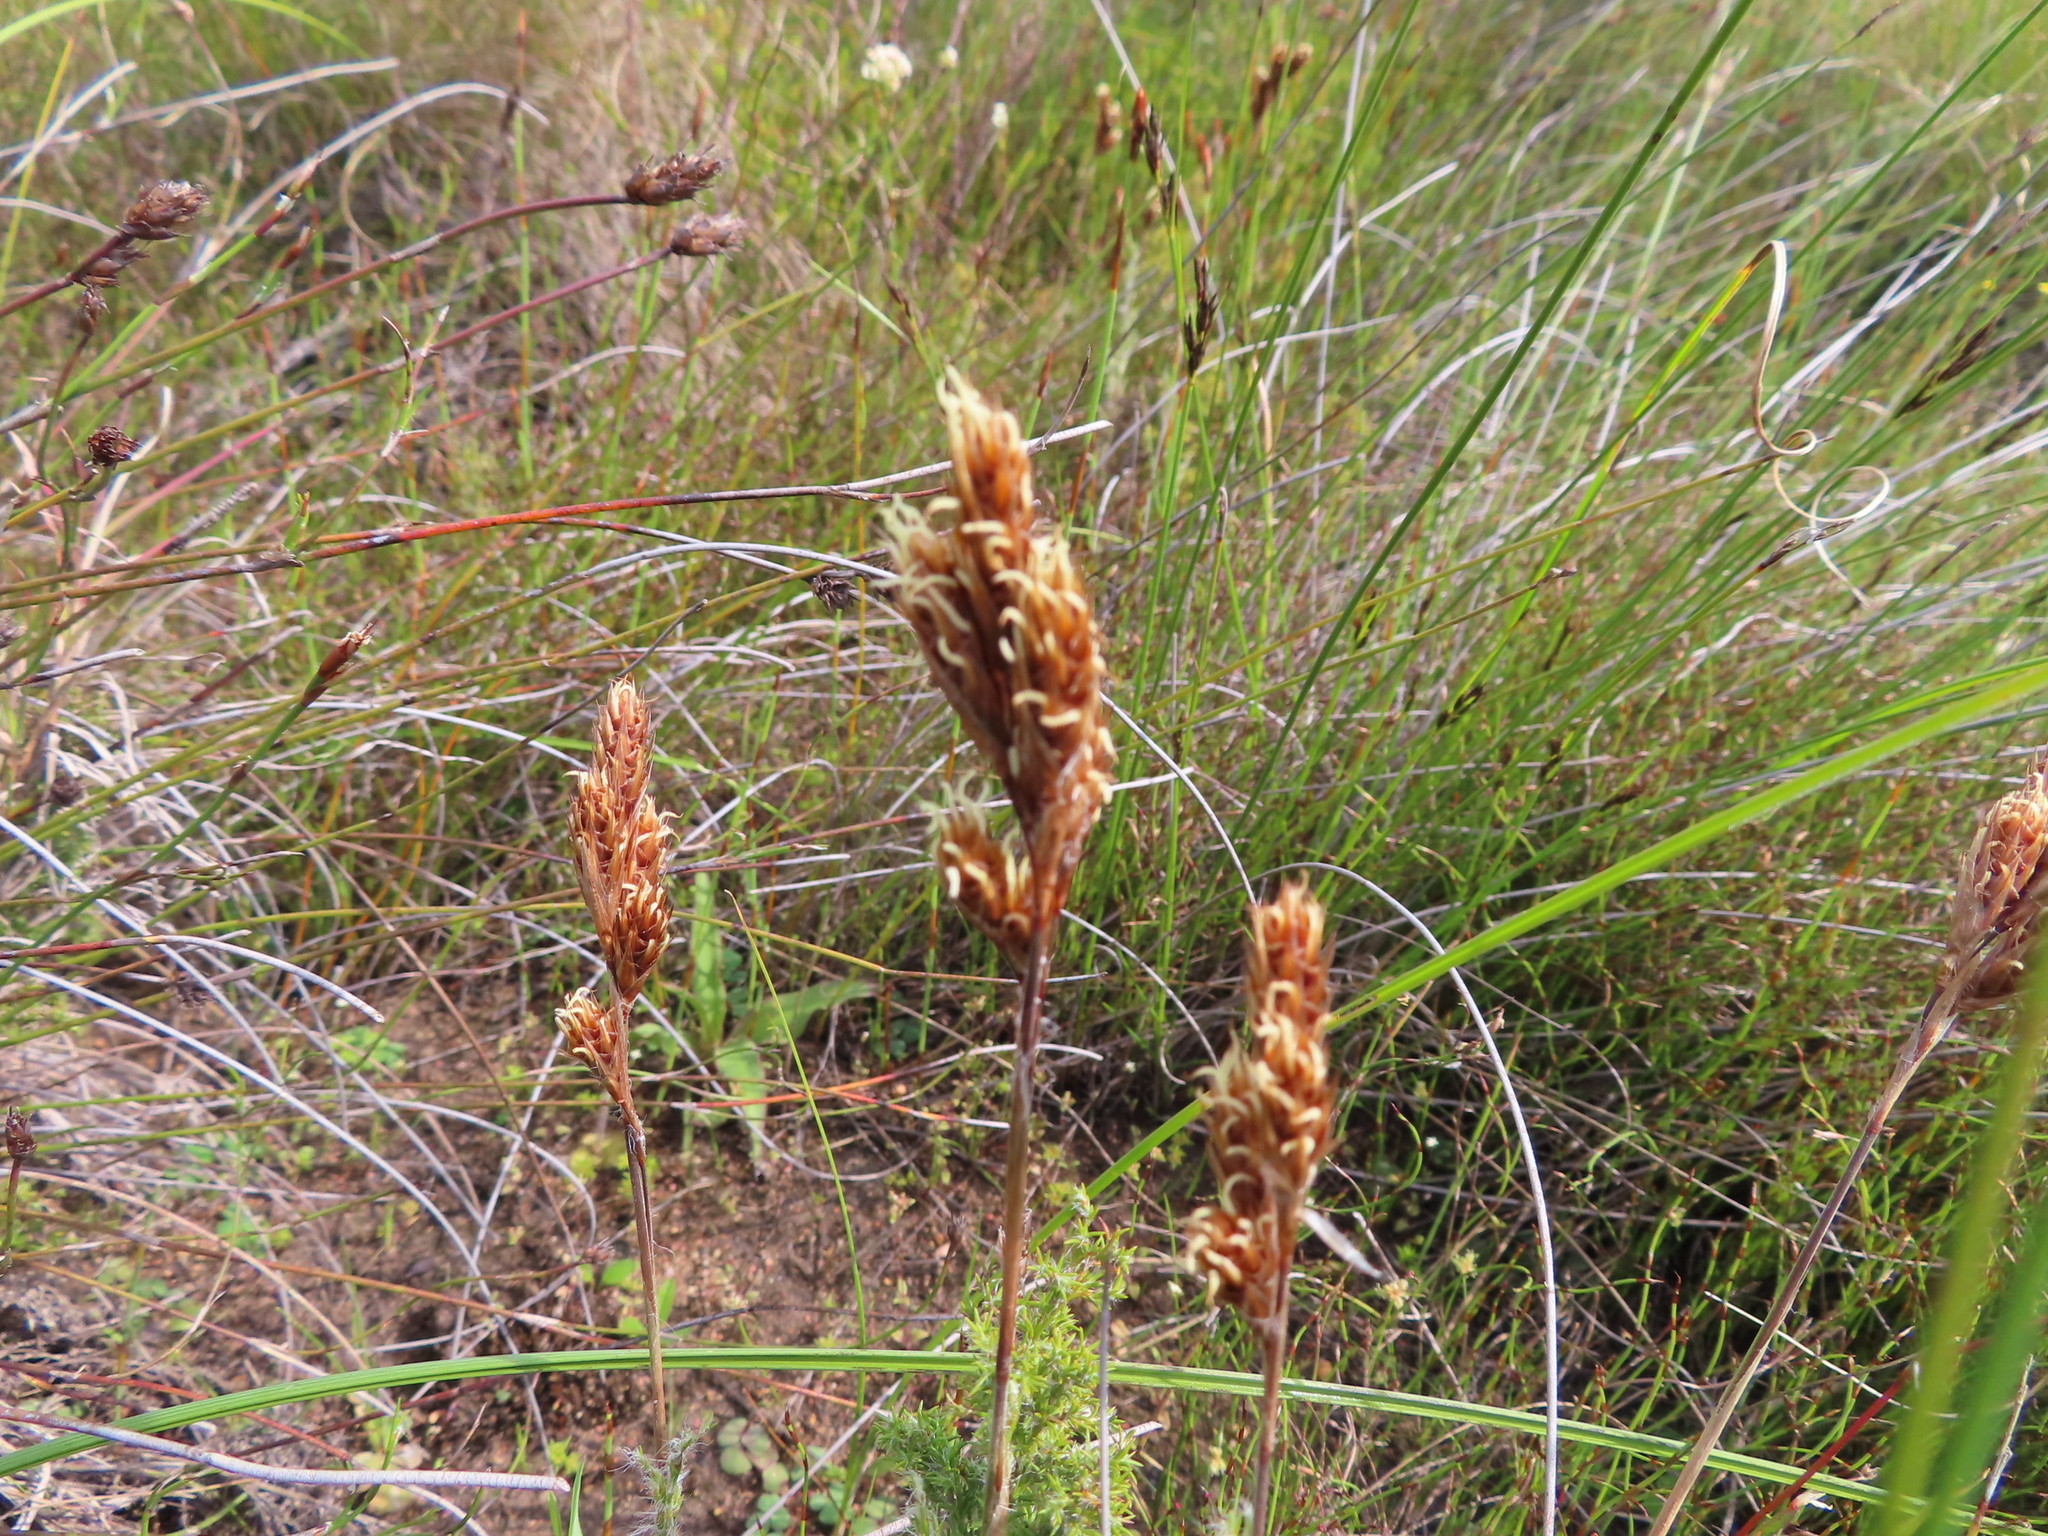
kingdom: Plantae
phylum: Tracheophyta
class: Liliopsida
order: Poales
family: Restionaceae
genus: Thamnochortus
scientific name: Thamnochortus fruticosus
